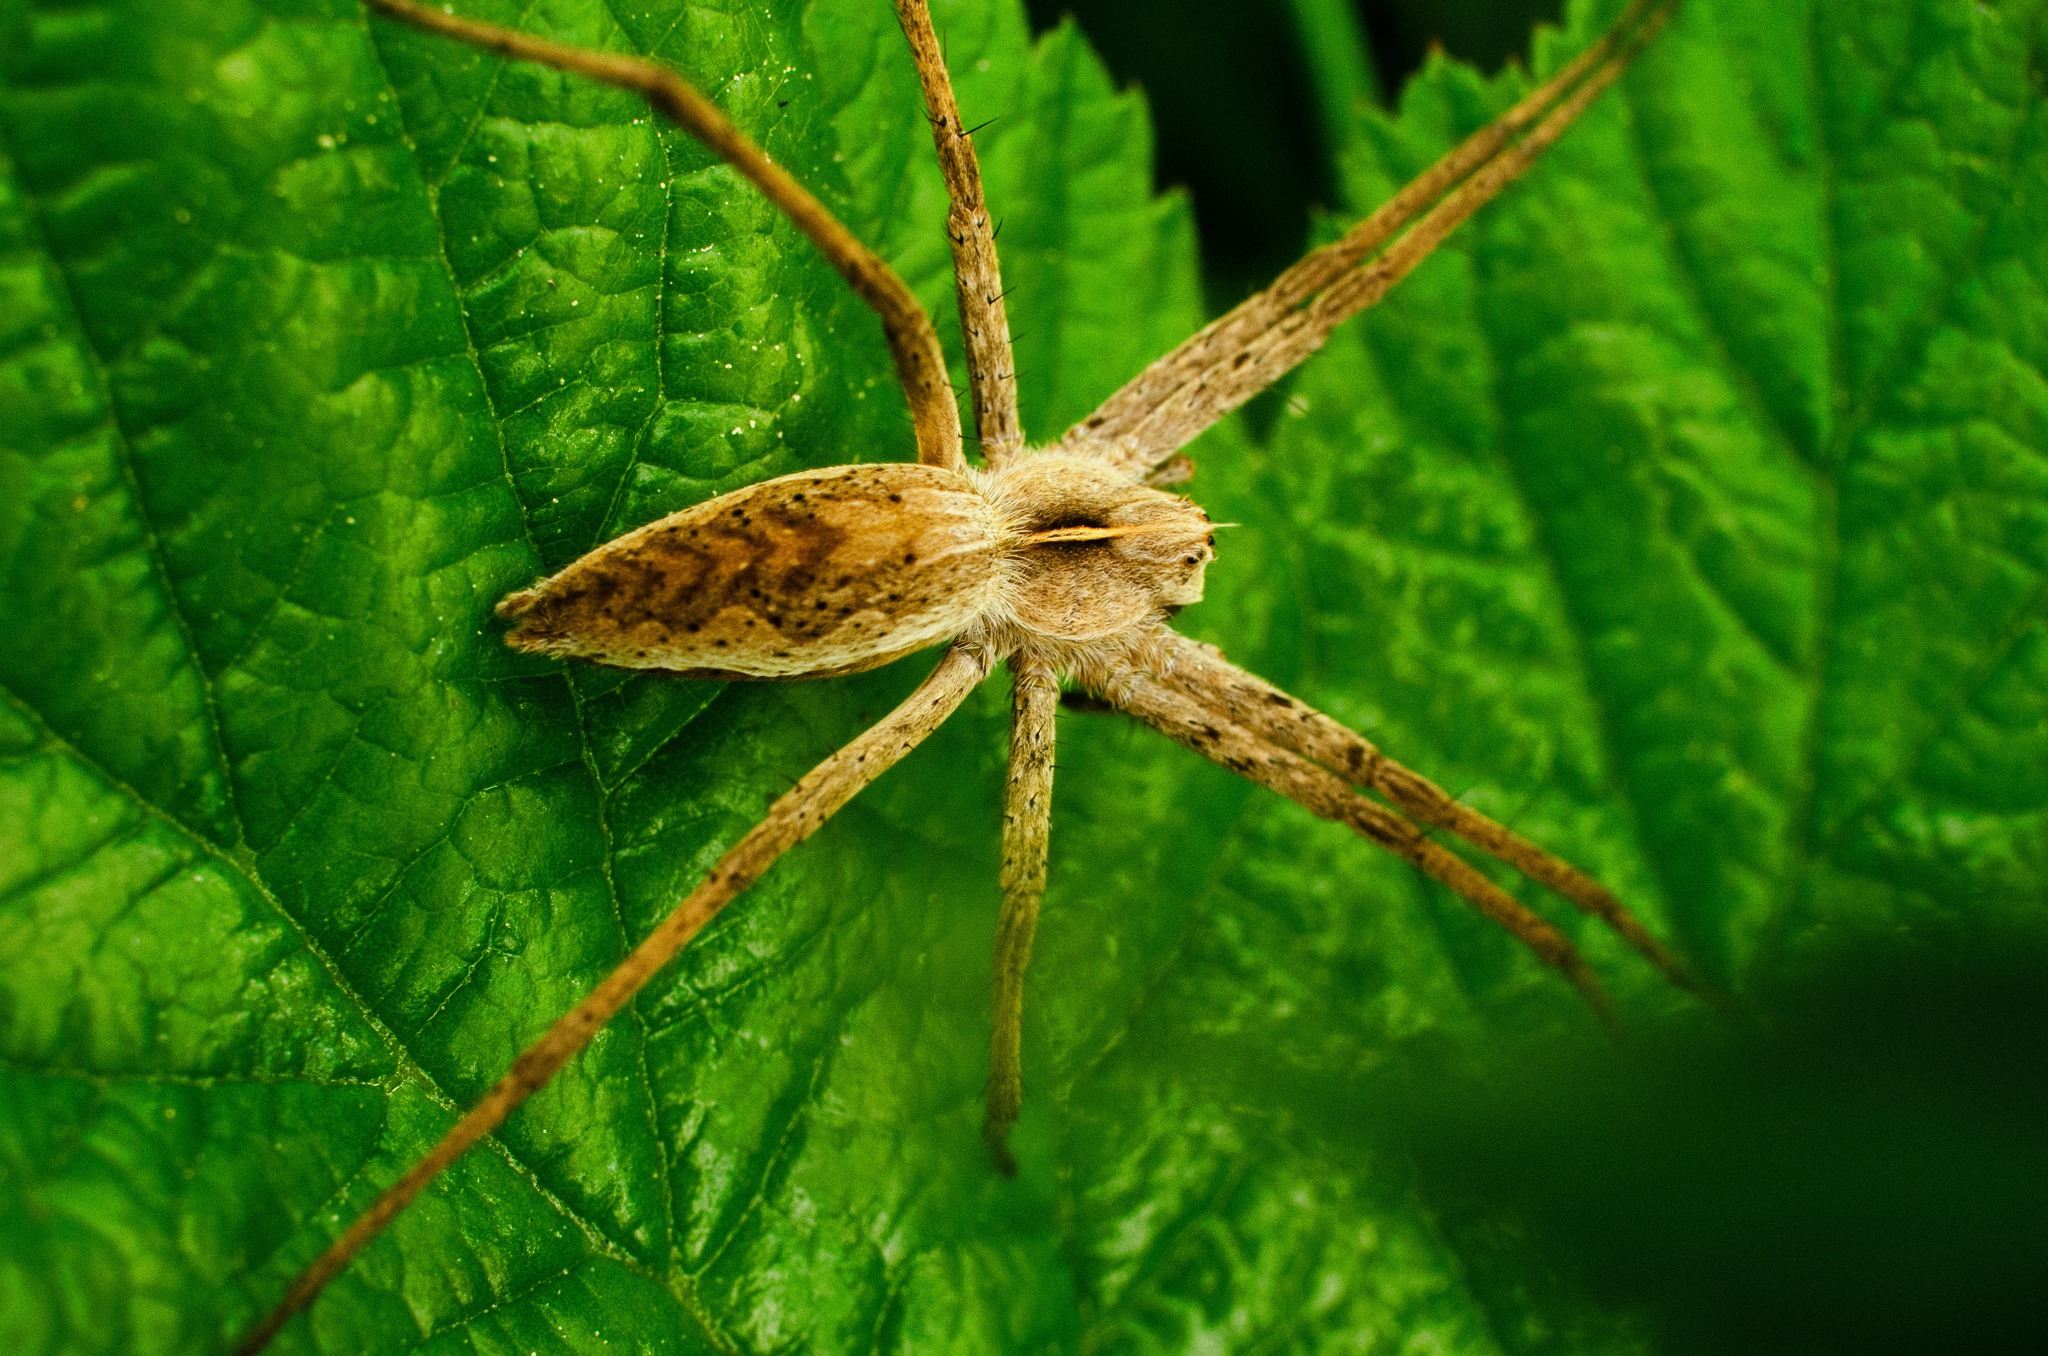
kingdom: Animalia
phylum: Arthropoda
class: Arachnida
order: Araneae
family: Pisauridae
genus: Pisaura
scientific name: Pisaura mirabilis
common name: Tent spider
